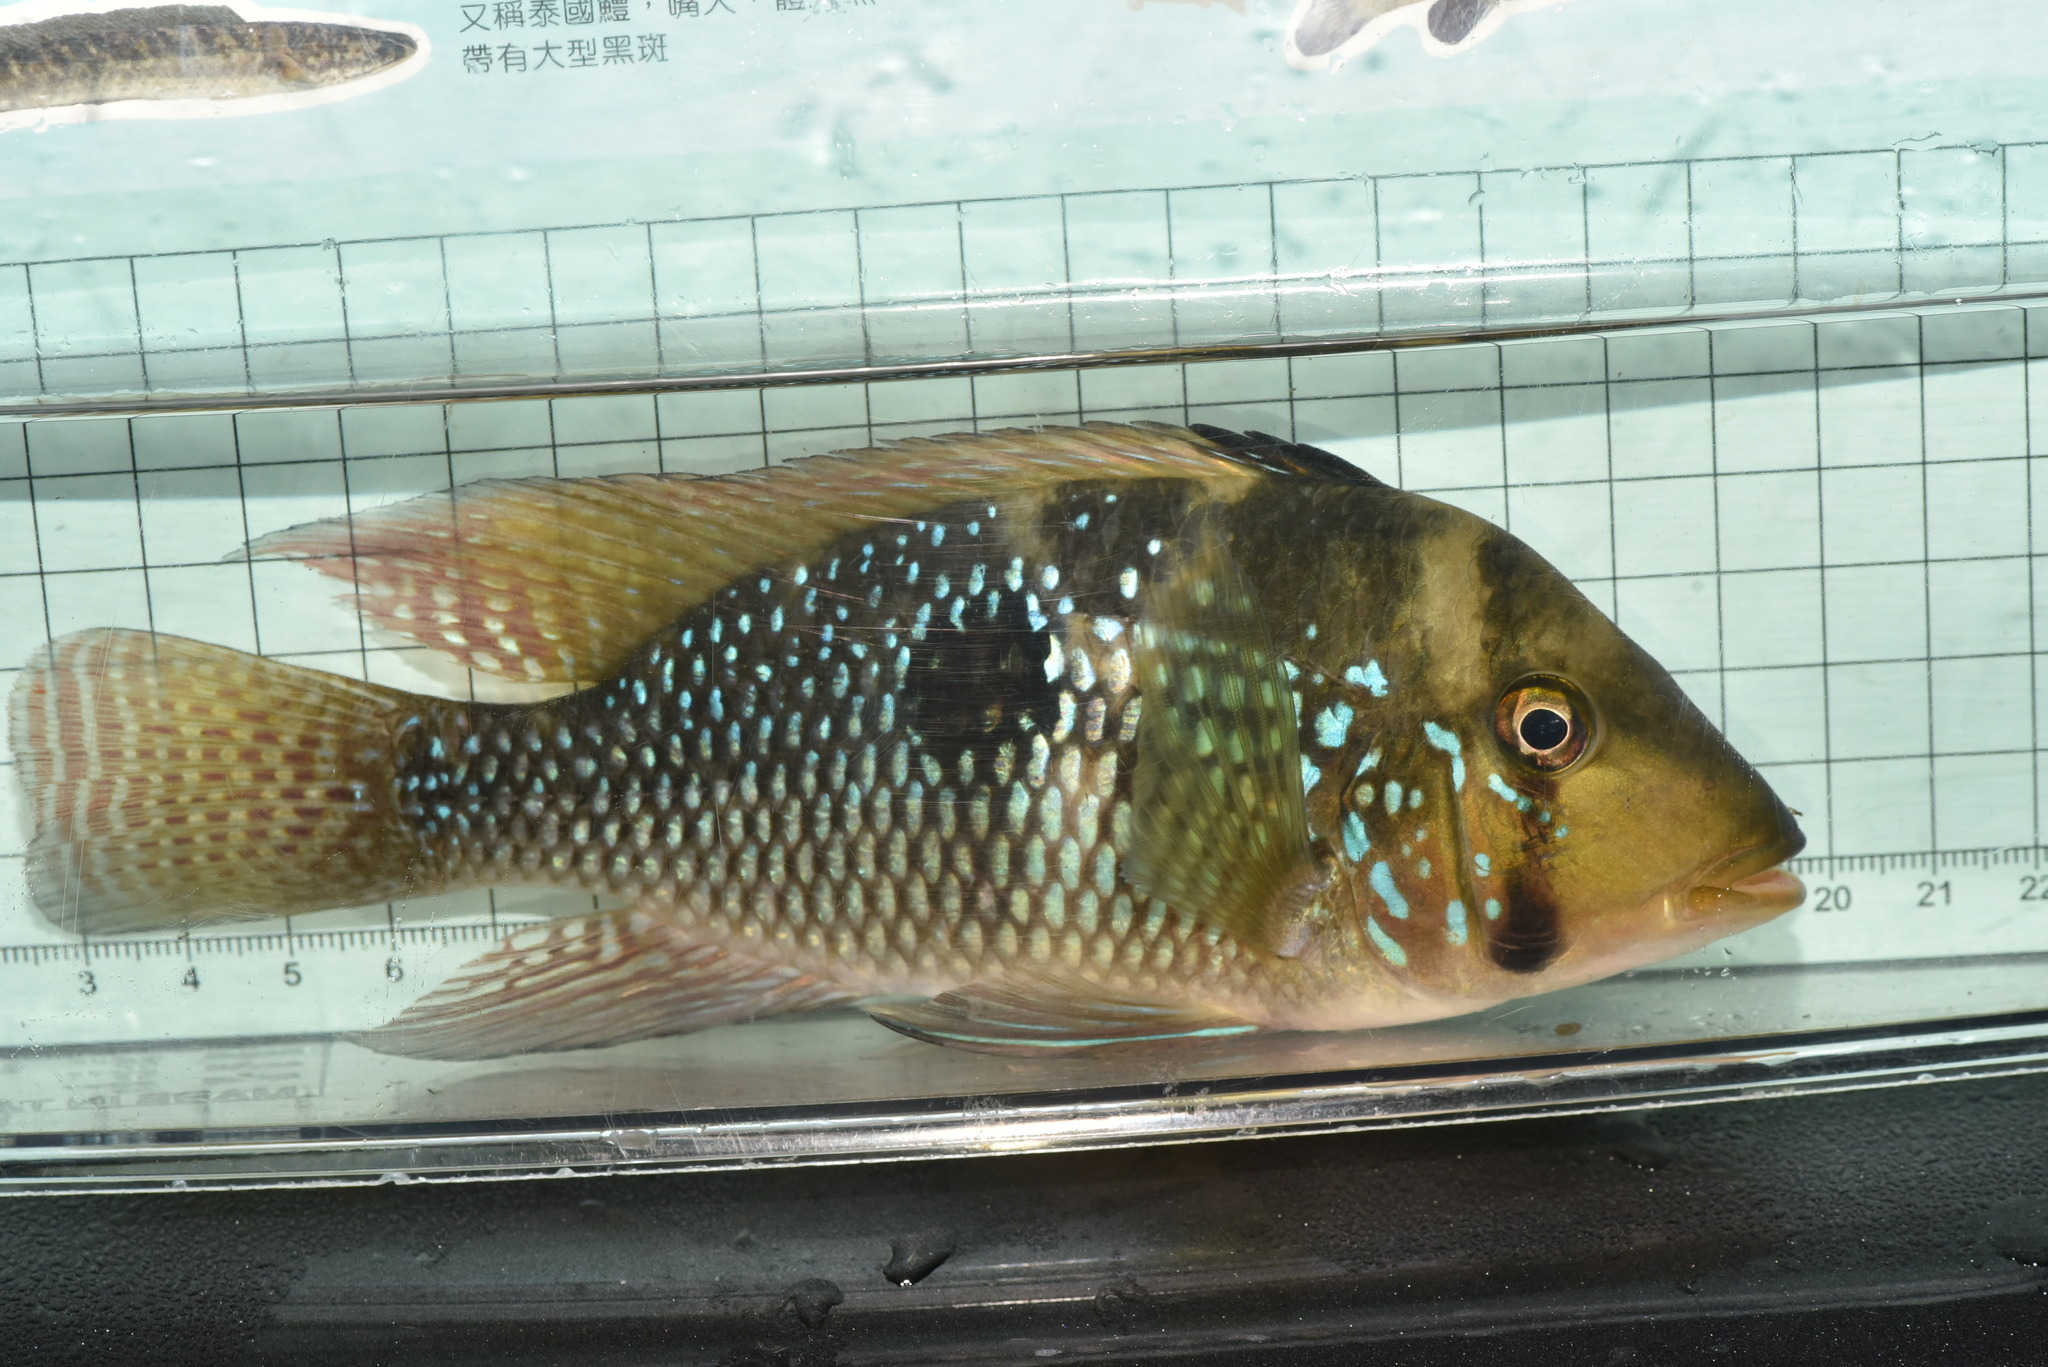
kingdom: Animalia
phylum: Chordata
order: Perciformes
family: Cichlidae
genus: Geophagus
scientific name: Geophagus brasiliensis
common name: Braziliensis
